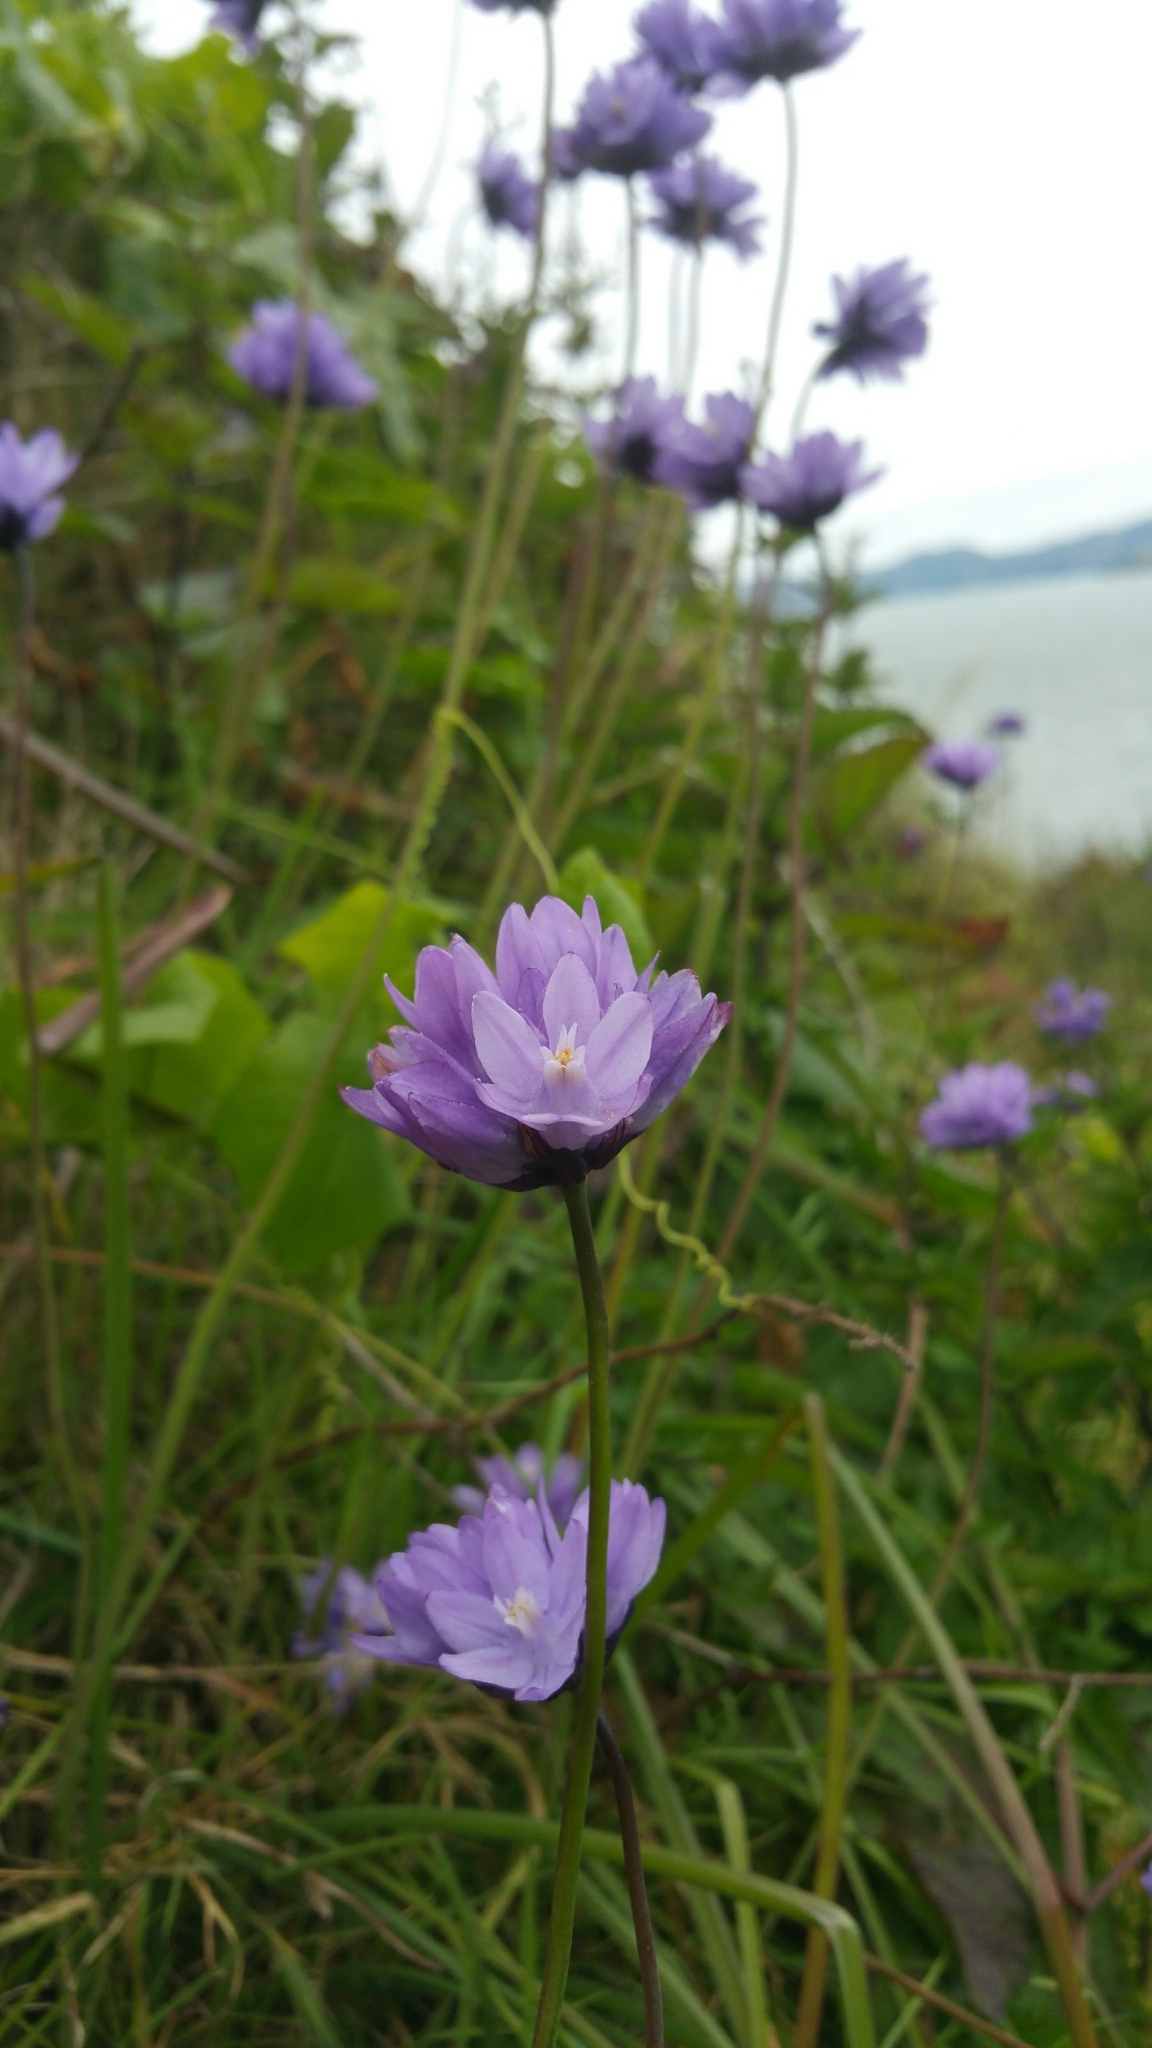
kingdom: Plantae
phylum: Tracheophyta
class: Liliopsida
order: Asparagales
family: Asparagaceae
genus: Dipterostemon
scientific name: Dipterostemon capitatus
